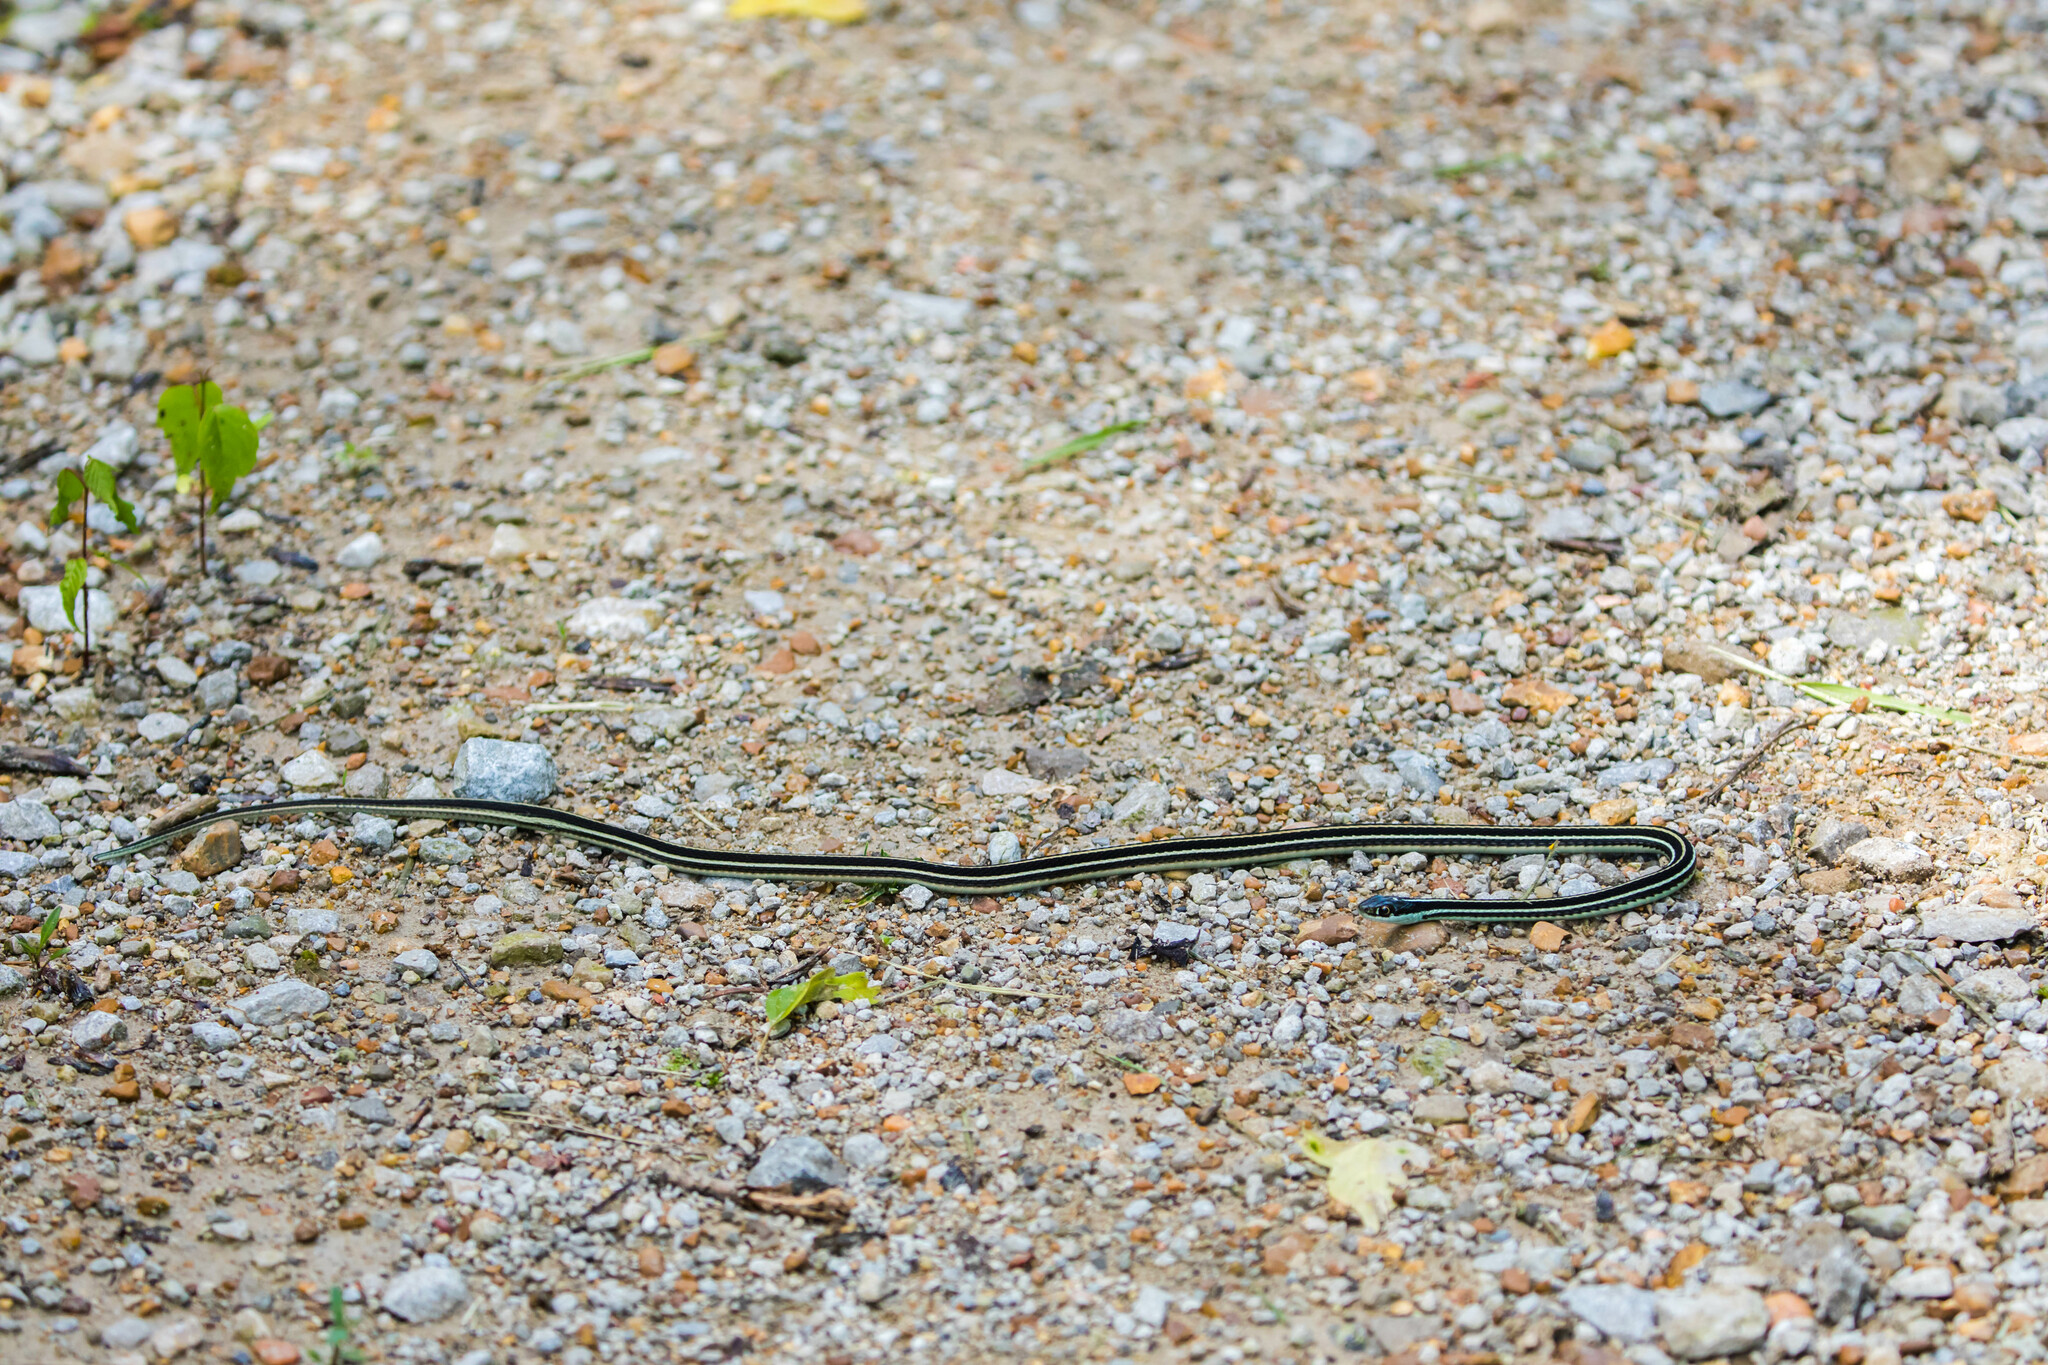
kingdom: Animalia
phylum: Chordata
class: Squamata
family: Colubridae
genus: Thamnophis
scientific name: Thamnophis proximus
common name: Western ribbon snake
